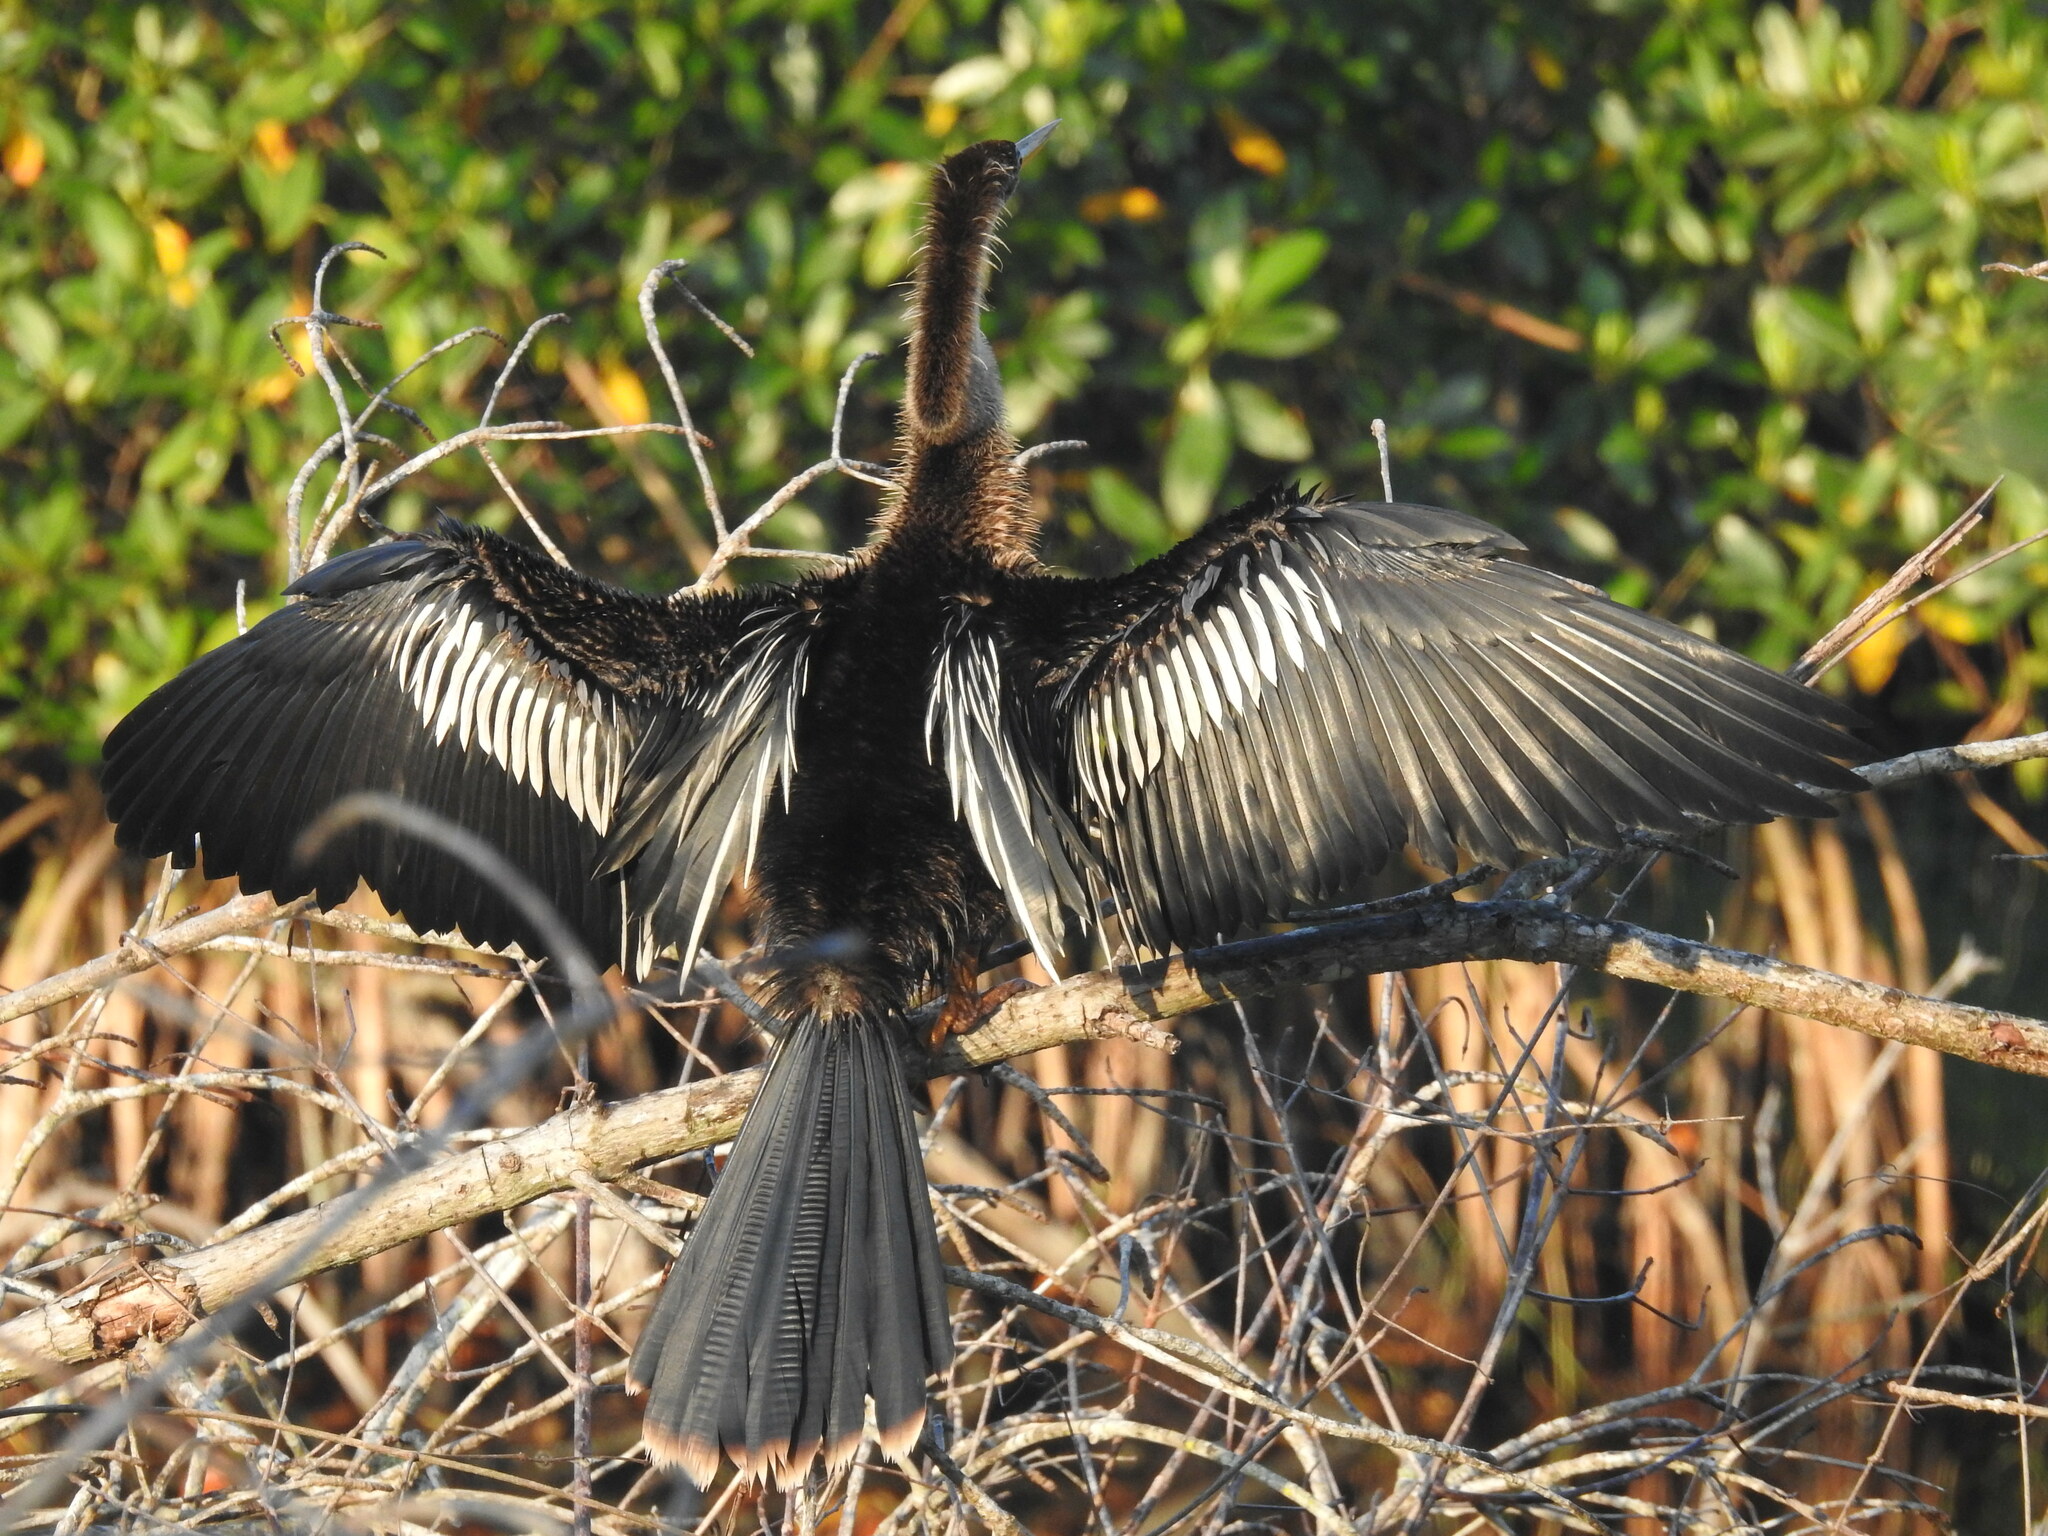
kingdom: Animalia
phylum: Chordata
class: Aves
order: Suliformes
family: Anhingidae
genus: Anhinga
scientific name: Anhinga anhinga
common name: Anhinga
